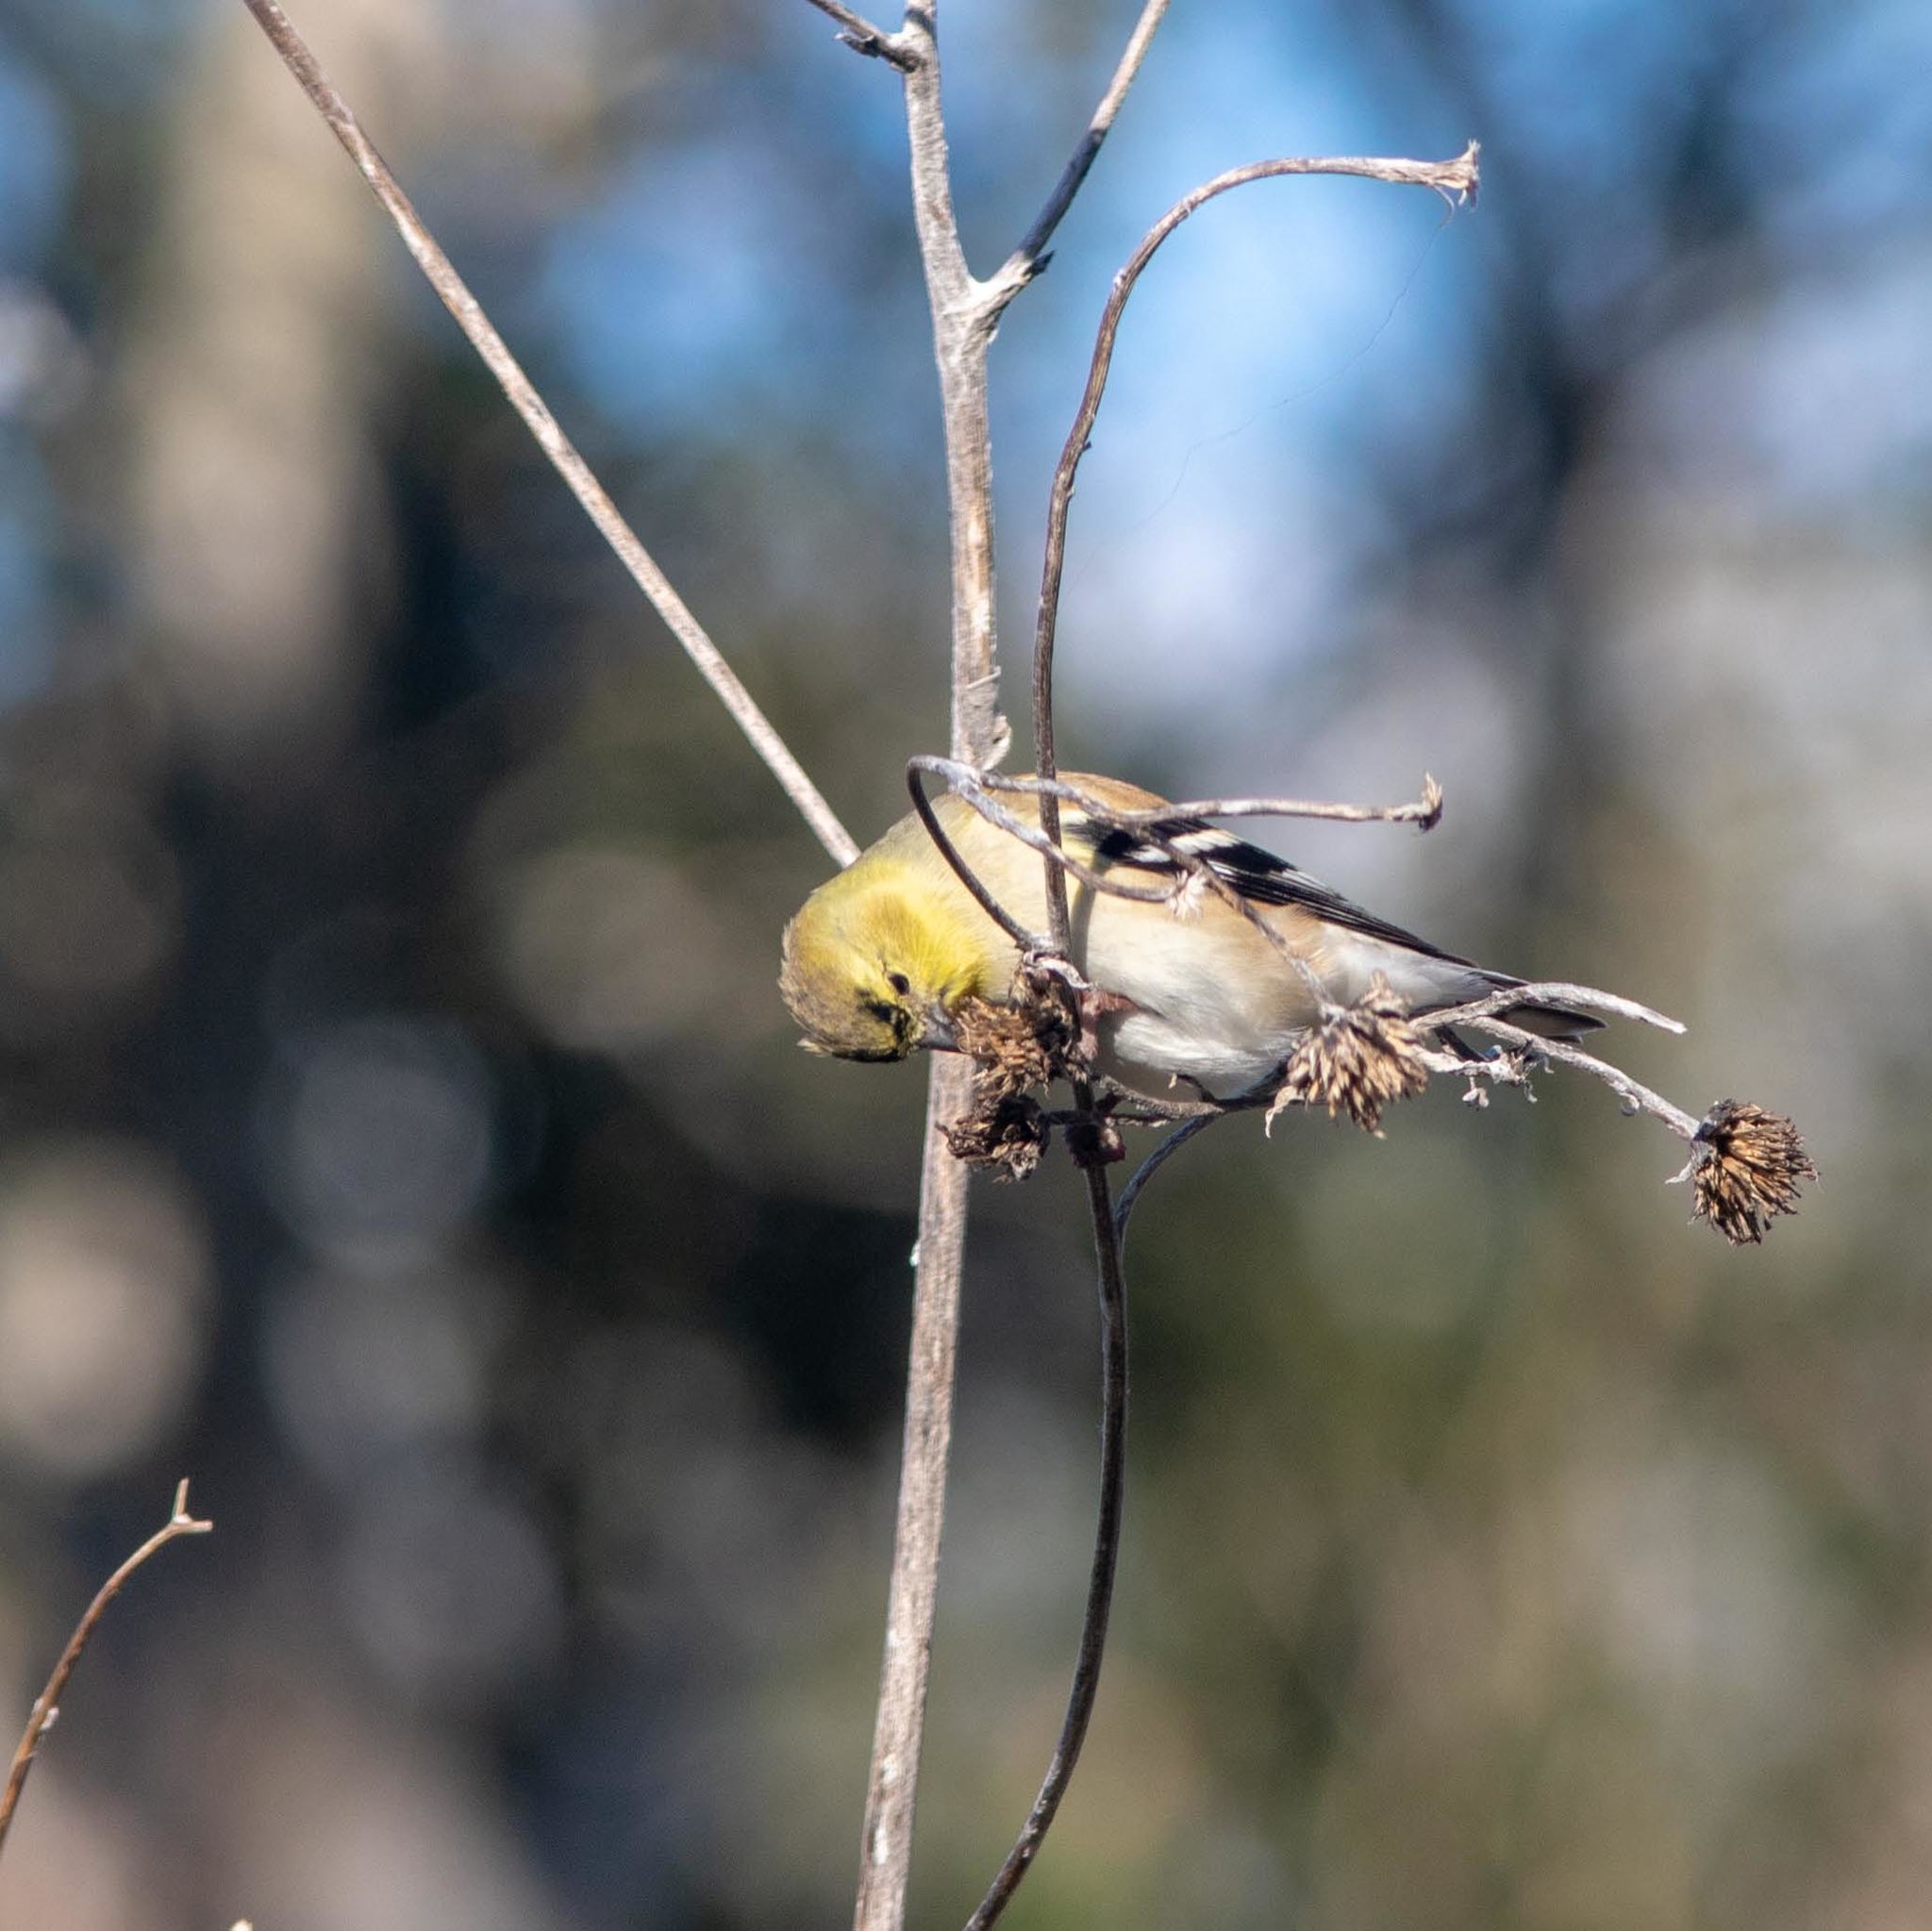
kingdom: Animalia
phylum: Chordata
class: Aves
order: Passeriformes
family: Fringillidae
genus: Spinus
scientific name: Spinus tristis
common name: American goldfinch
